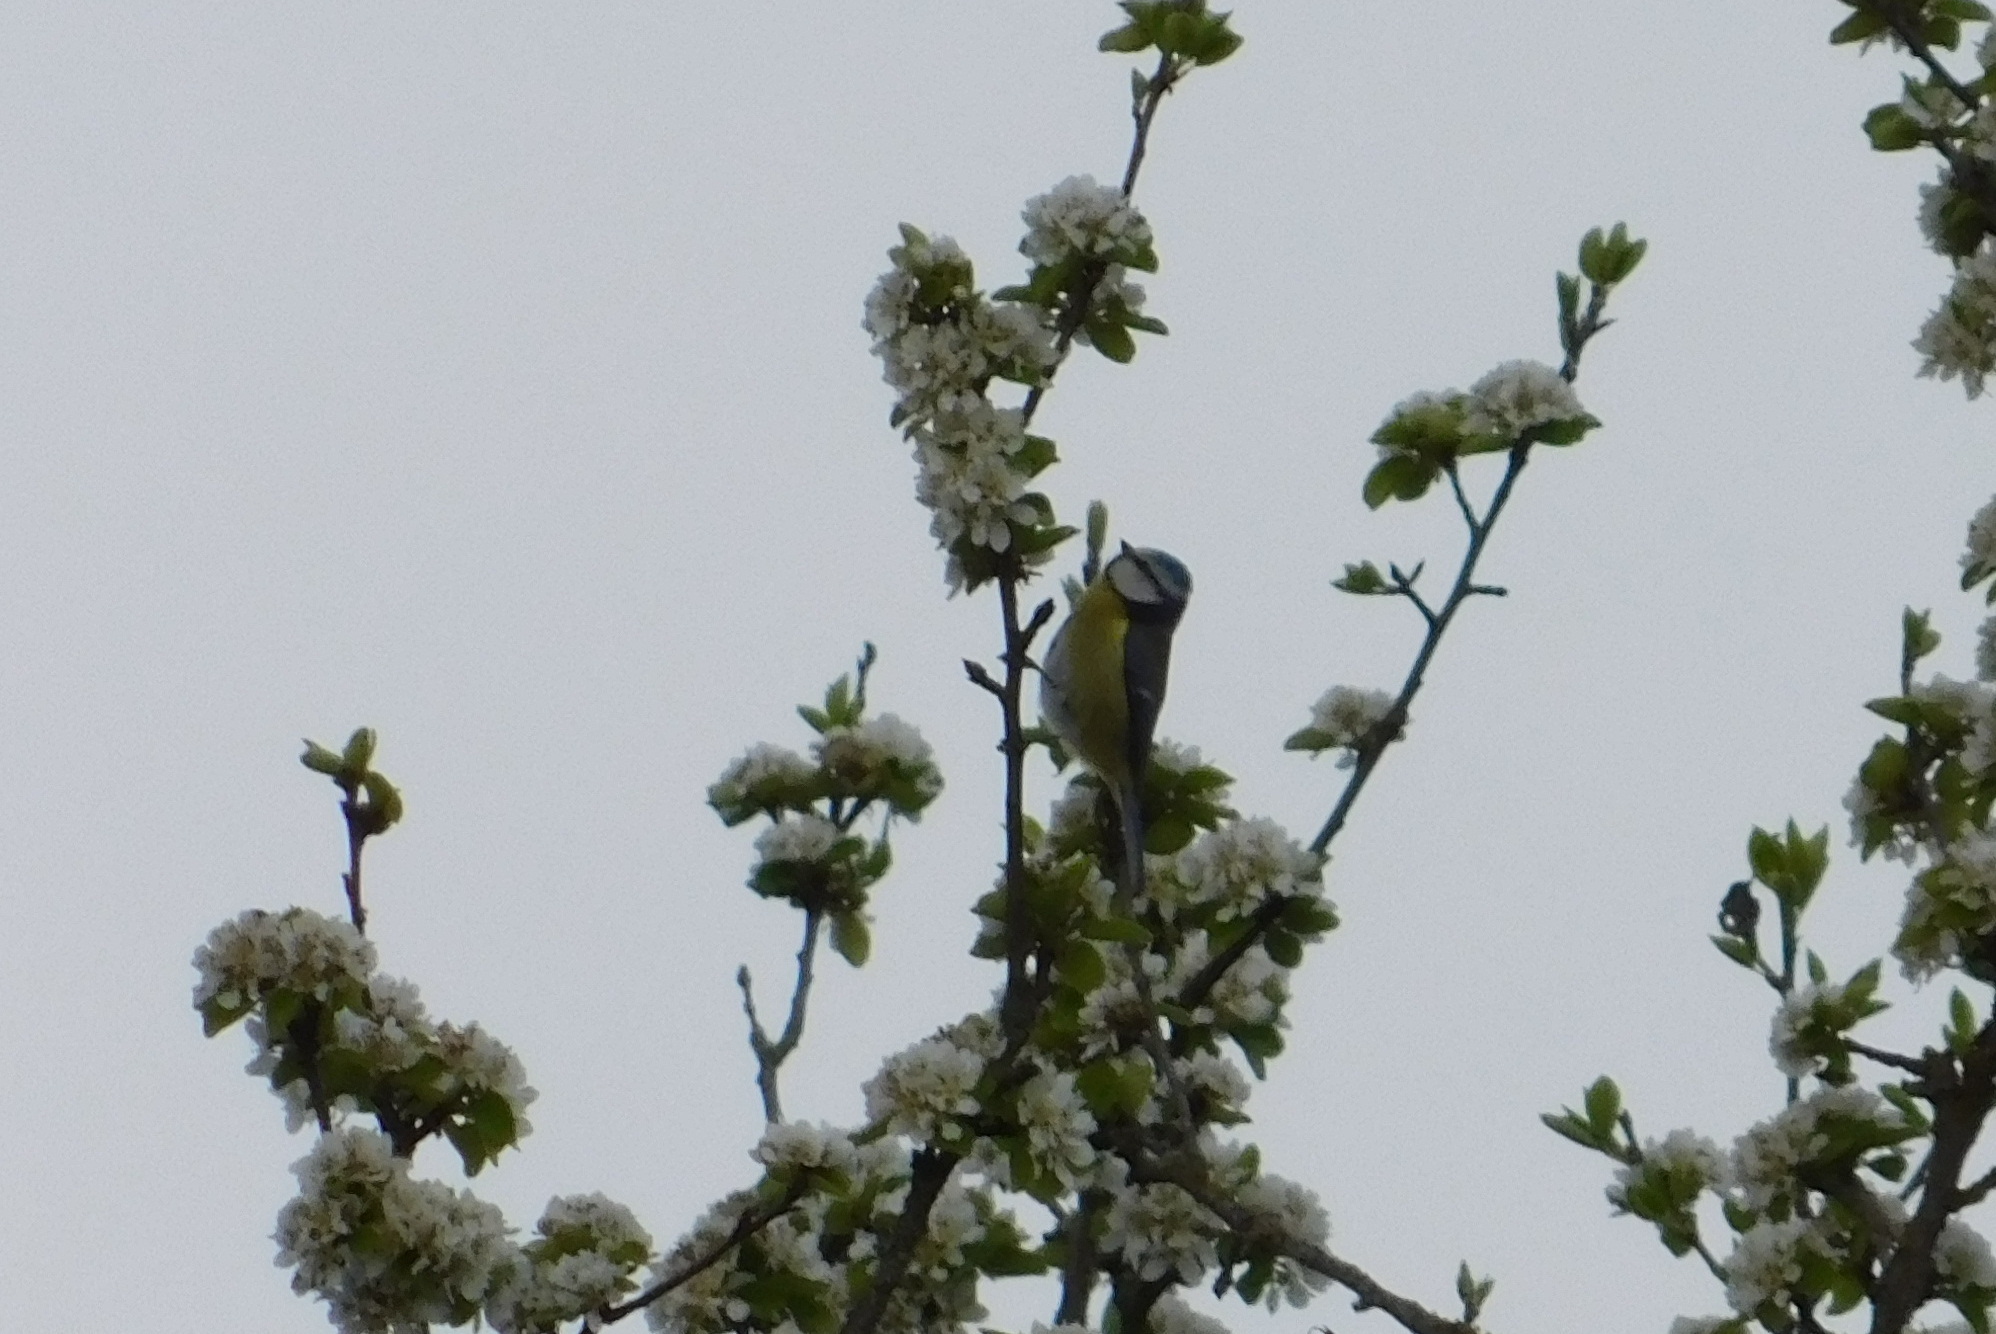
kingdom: Animalia
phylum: Chordata
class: Aves
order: Passeriformes
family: Paridae
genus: Cyanistes
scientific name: Cyanistes caeruleus
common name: Eurasian blue tit
